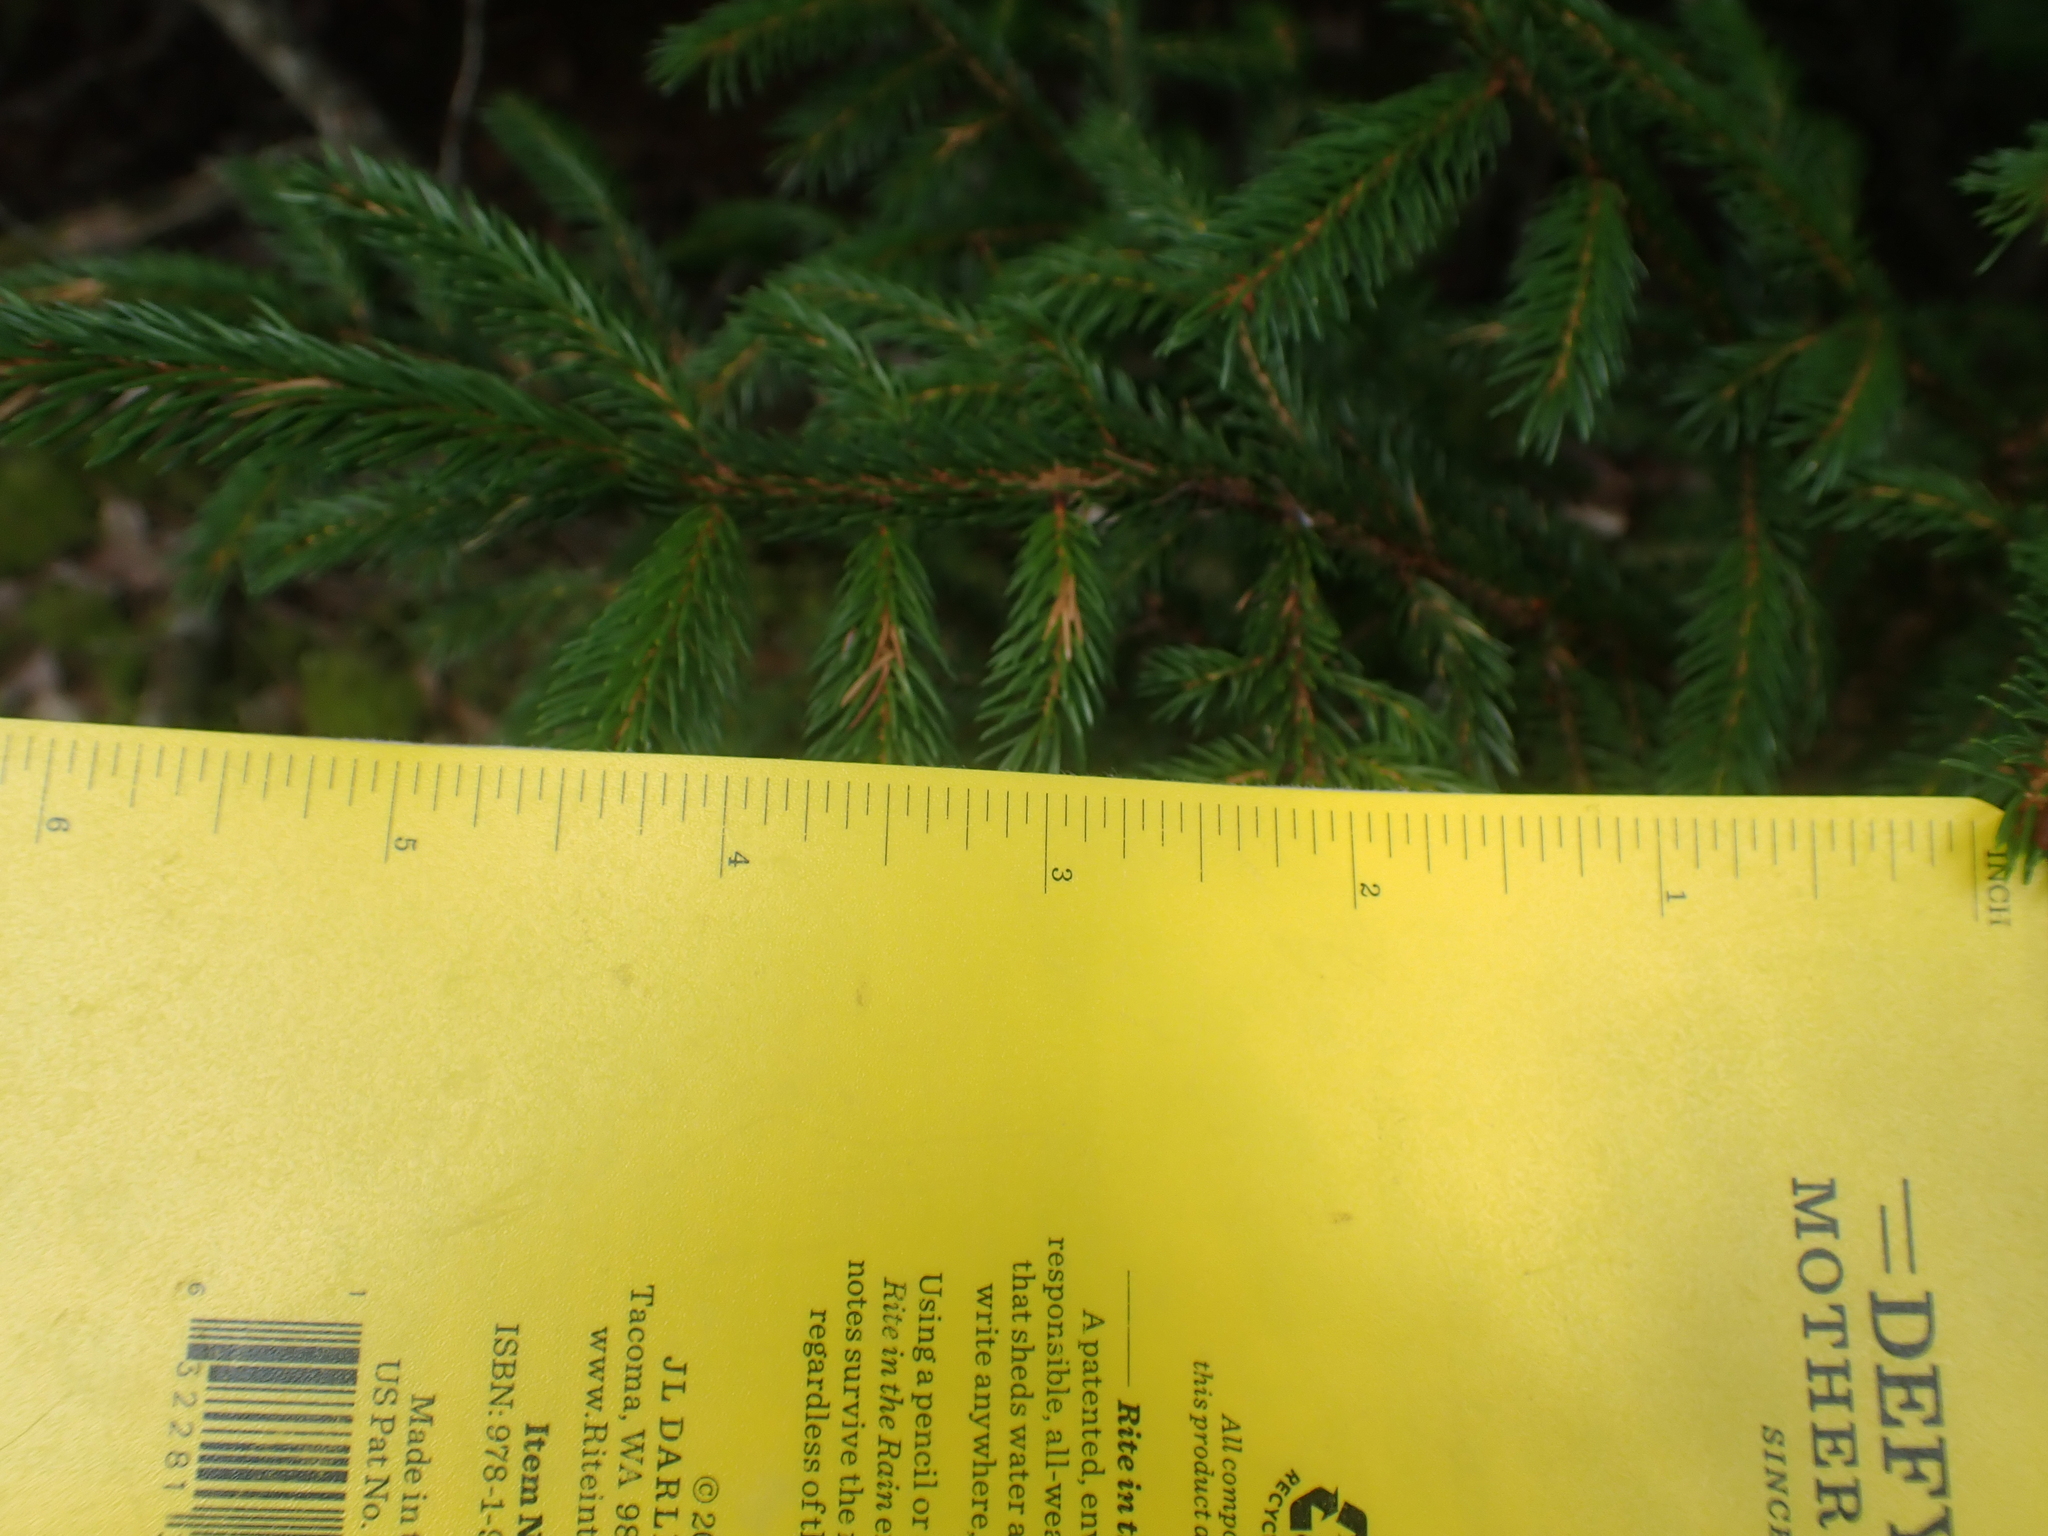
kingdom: Plantae
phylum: Tracheophyta
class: Pinopsida
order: Pinales
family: Pinaceae
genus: Picea
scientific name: Picea rubens
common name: Red spruce
